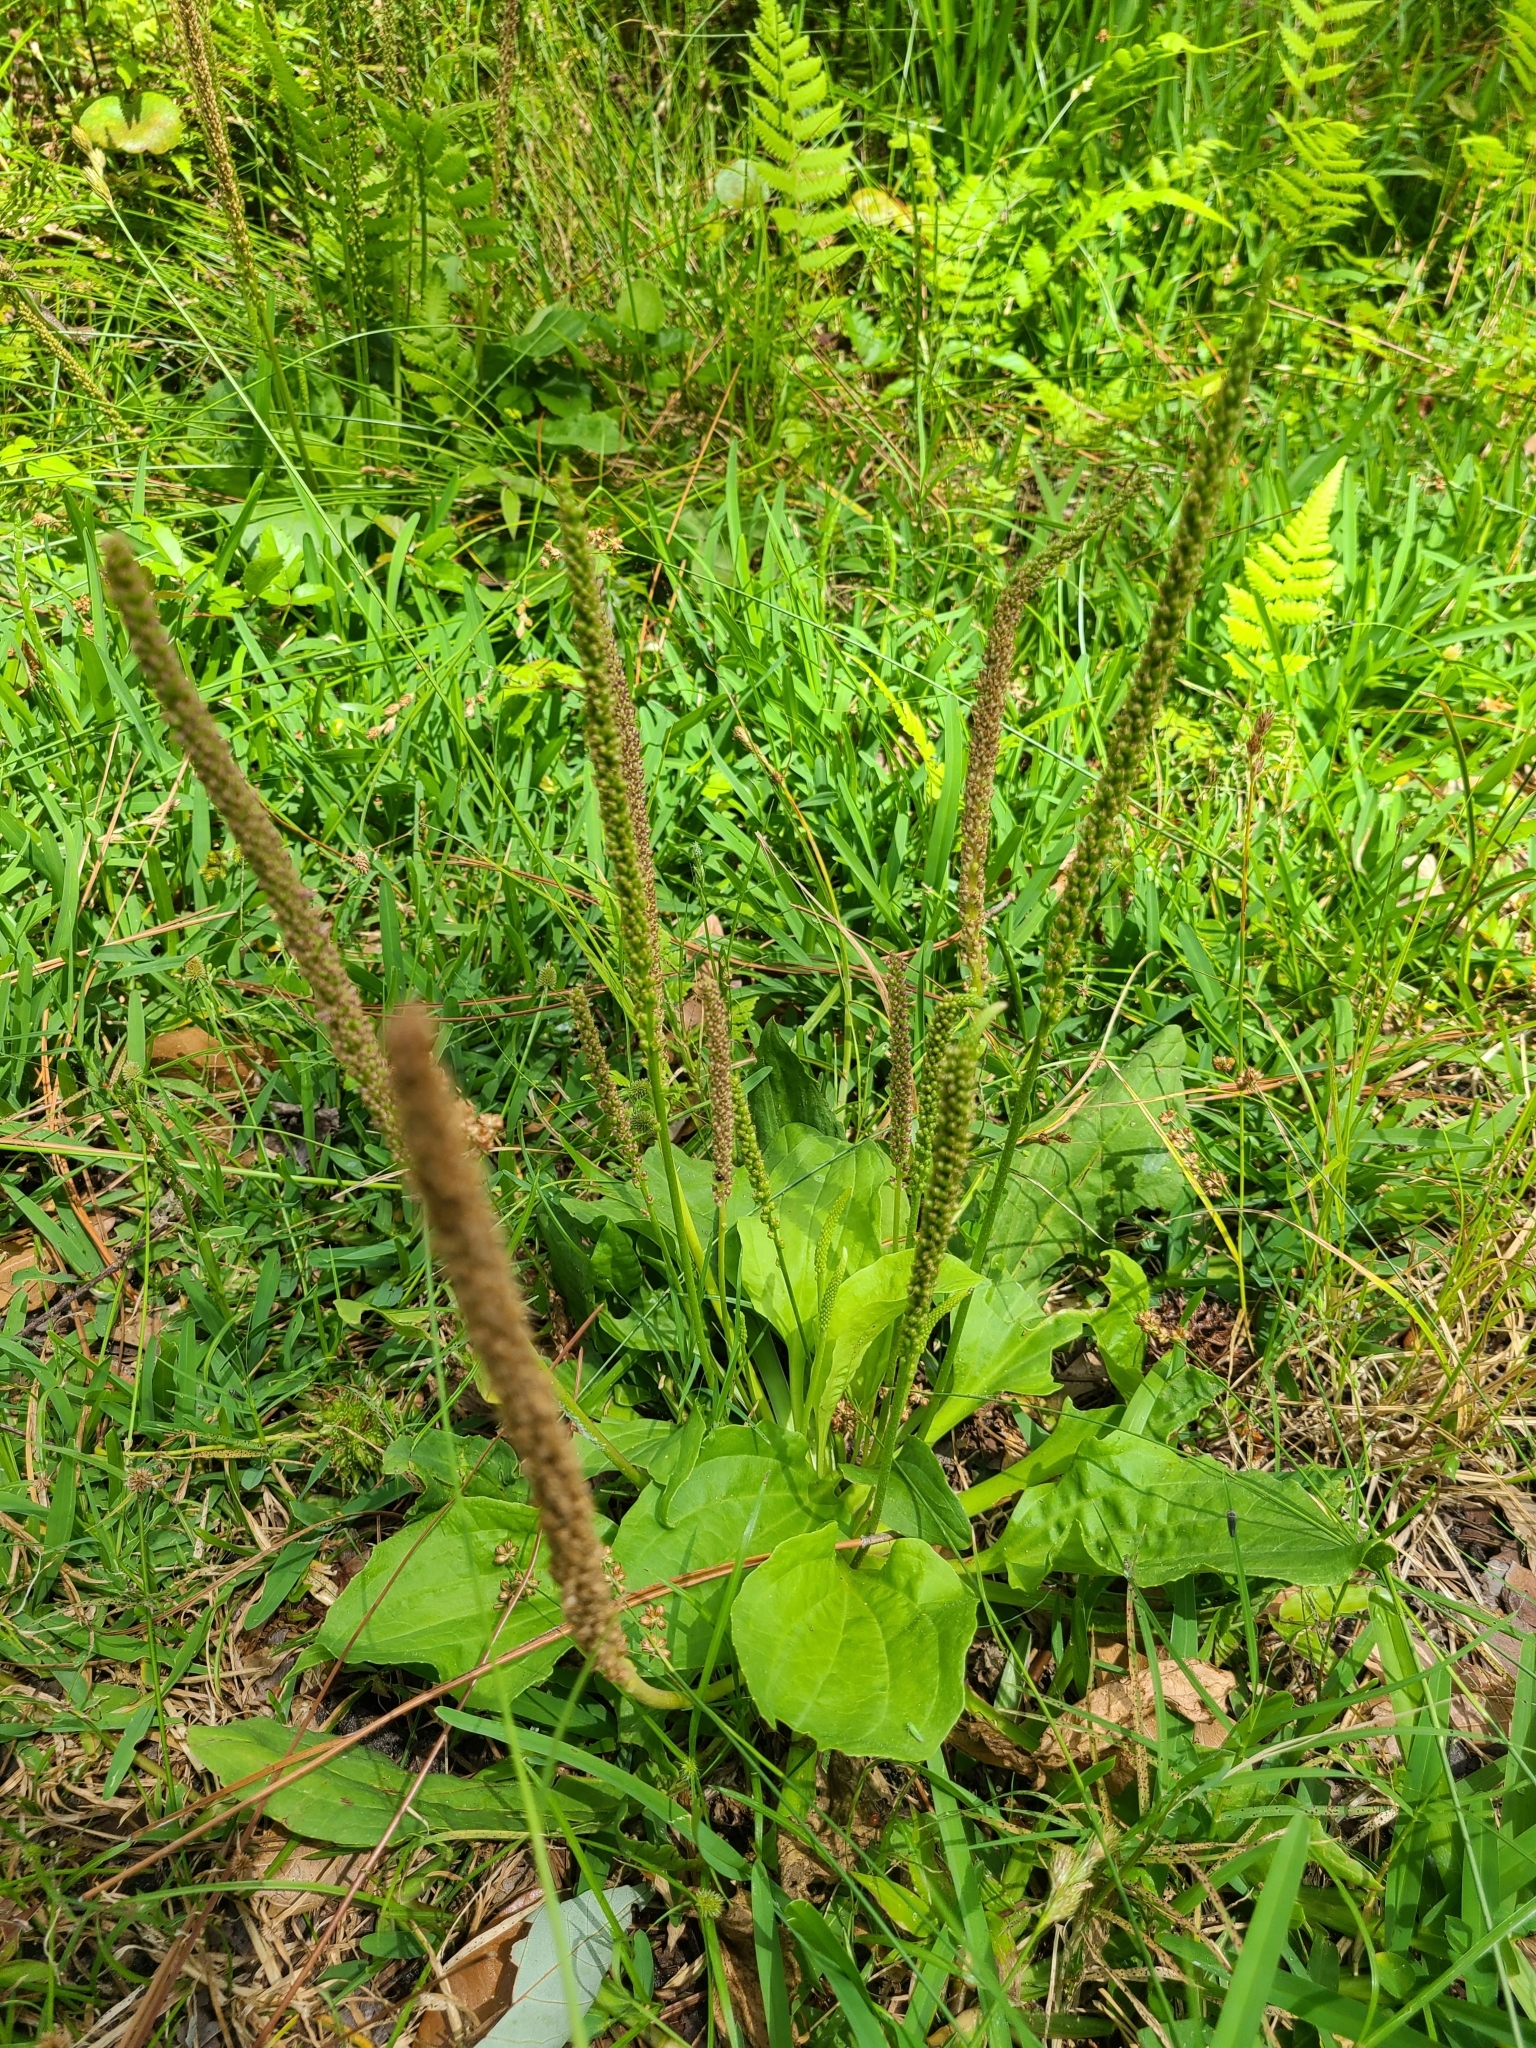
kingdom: Plantae
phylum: Tracheophyta
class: Magnoliopsida
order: Lamiales
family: Plantaginaceae
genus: Plantago
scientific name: Plantago major
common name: Common plantain
